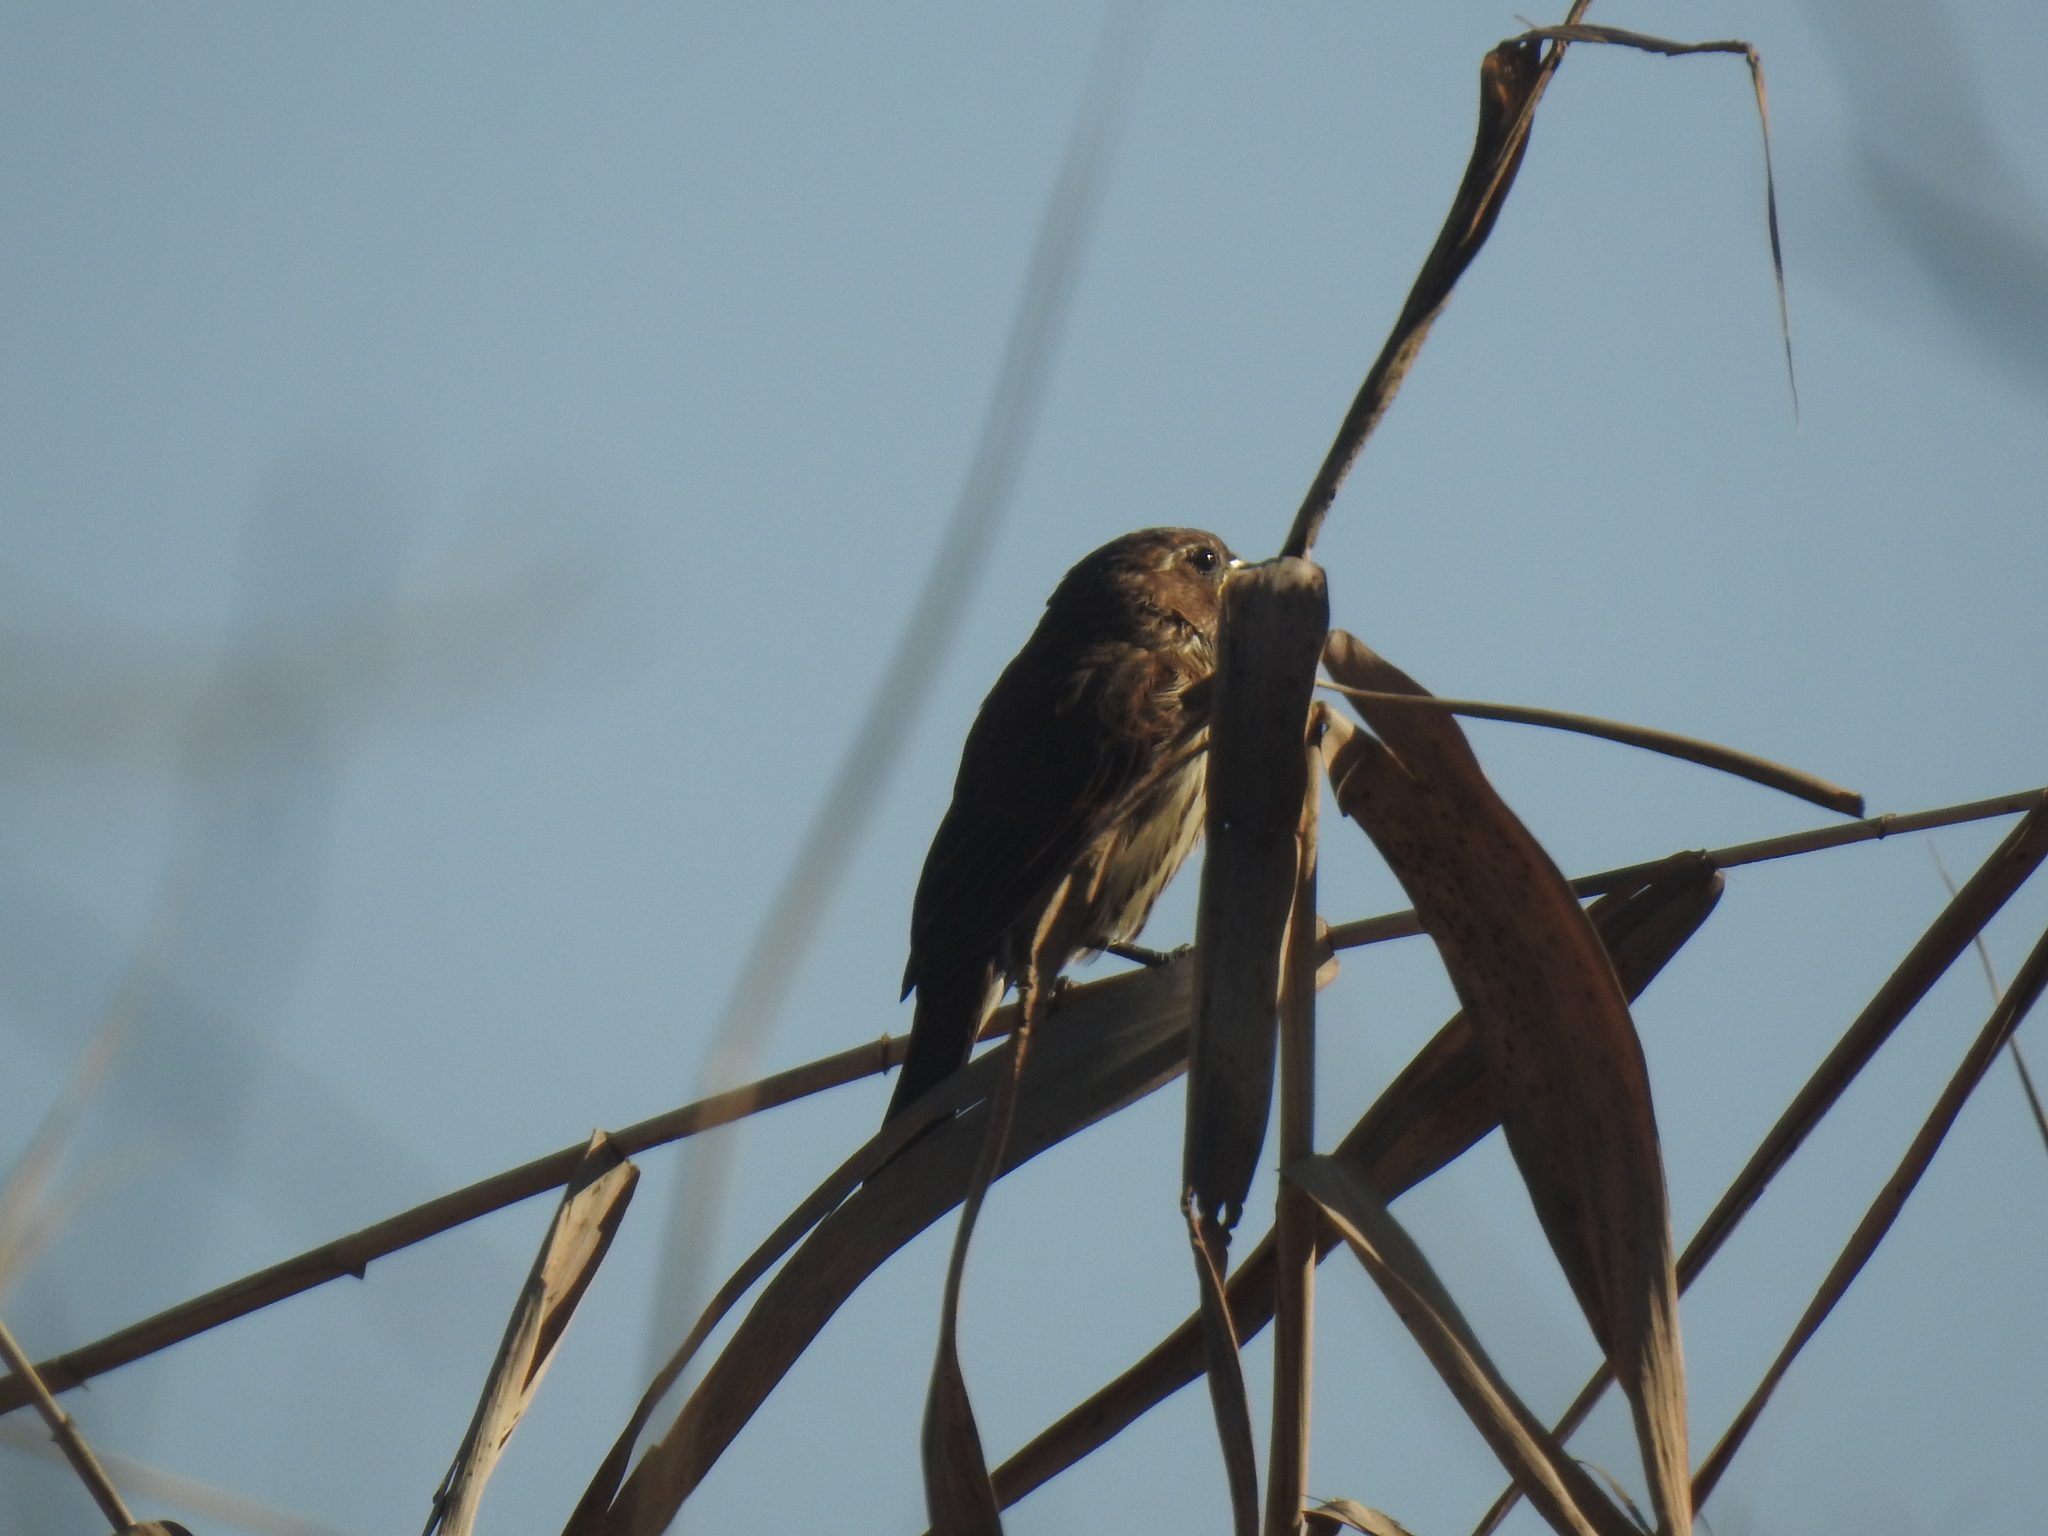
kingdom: Animalia
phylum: Chordata
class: Aves
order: Passeriformes
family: Ploceidae
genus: Amblyospiza
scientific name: Amblyospiza albifrons
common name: Thick-billed weaver
